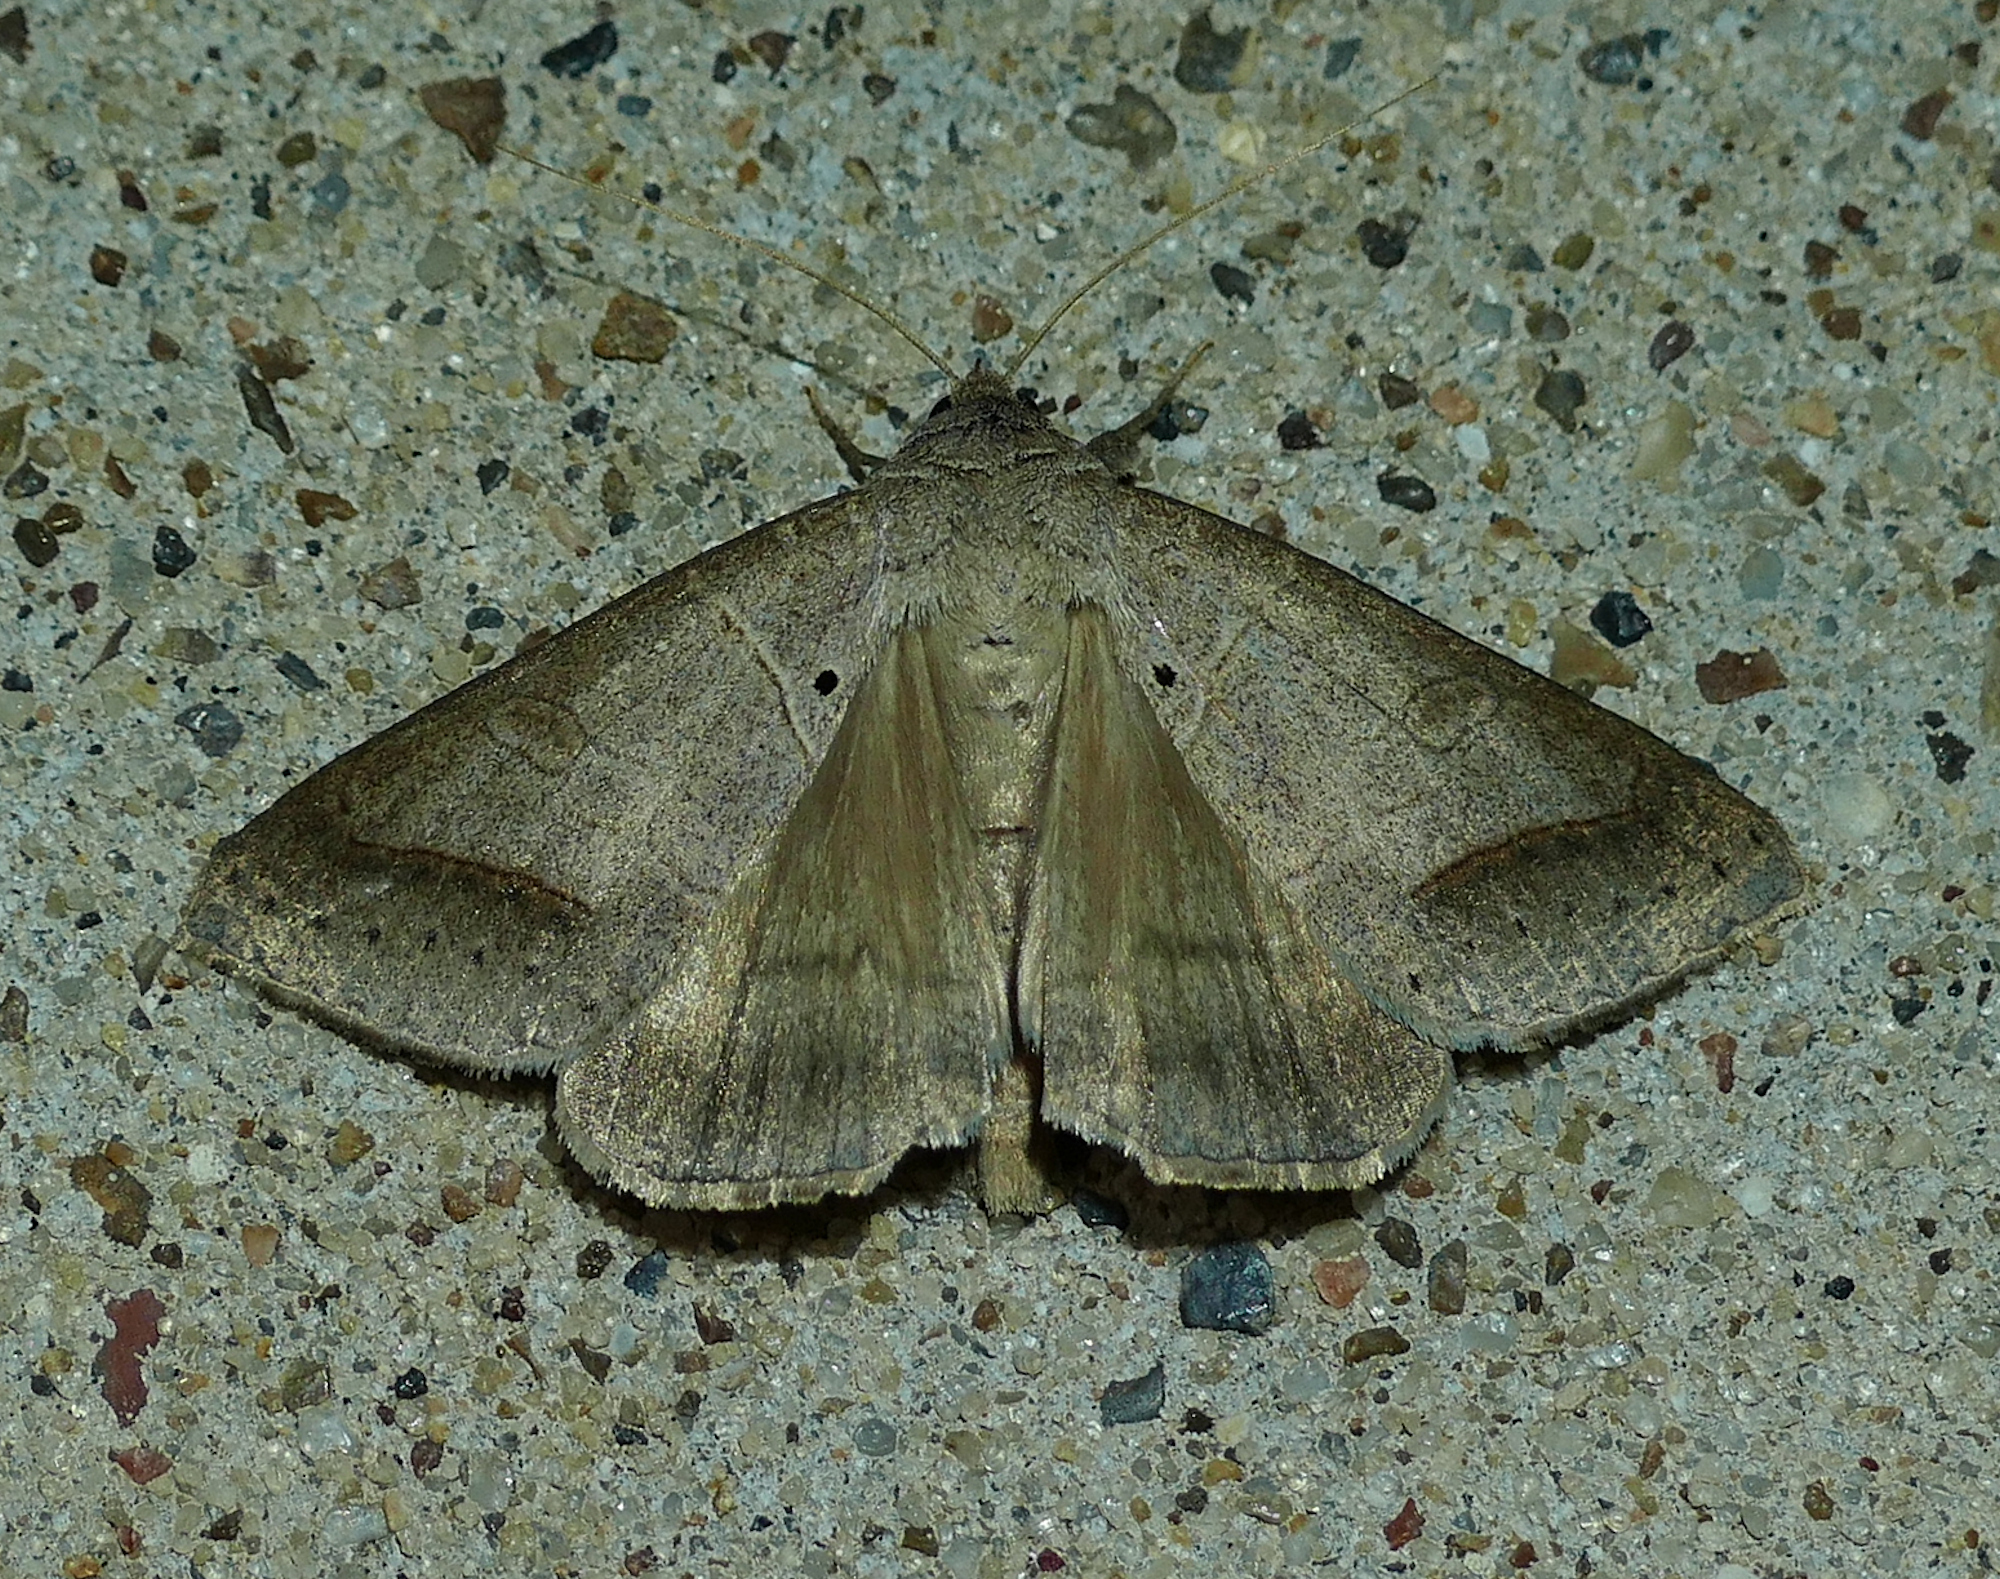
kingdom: Animalia
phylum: Arthropoda
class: Insecta
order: Lepidoptera
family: Erebidae
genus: Mocis
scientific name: Mocis marcida
